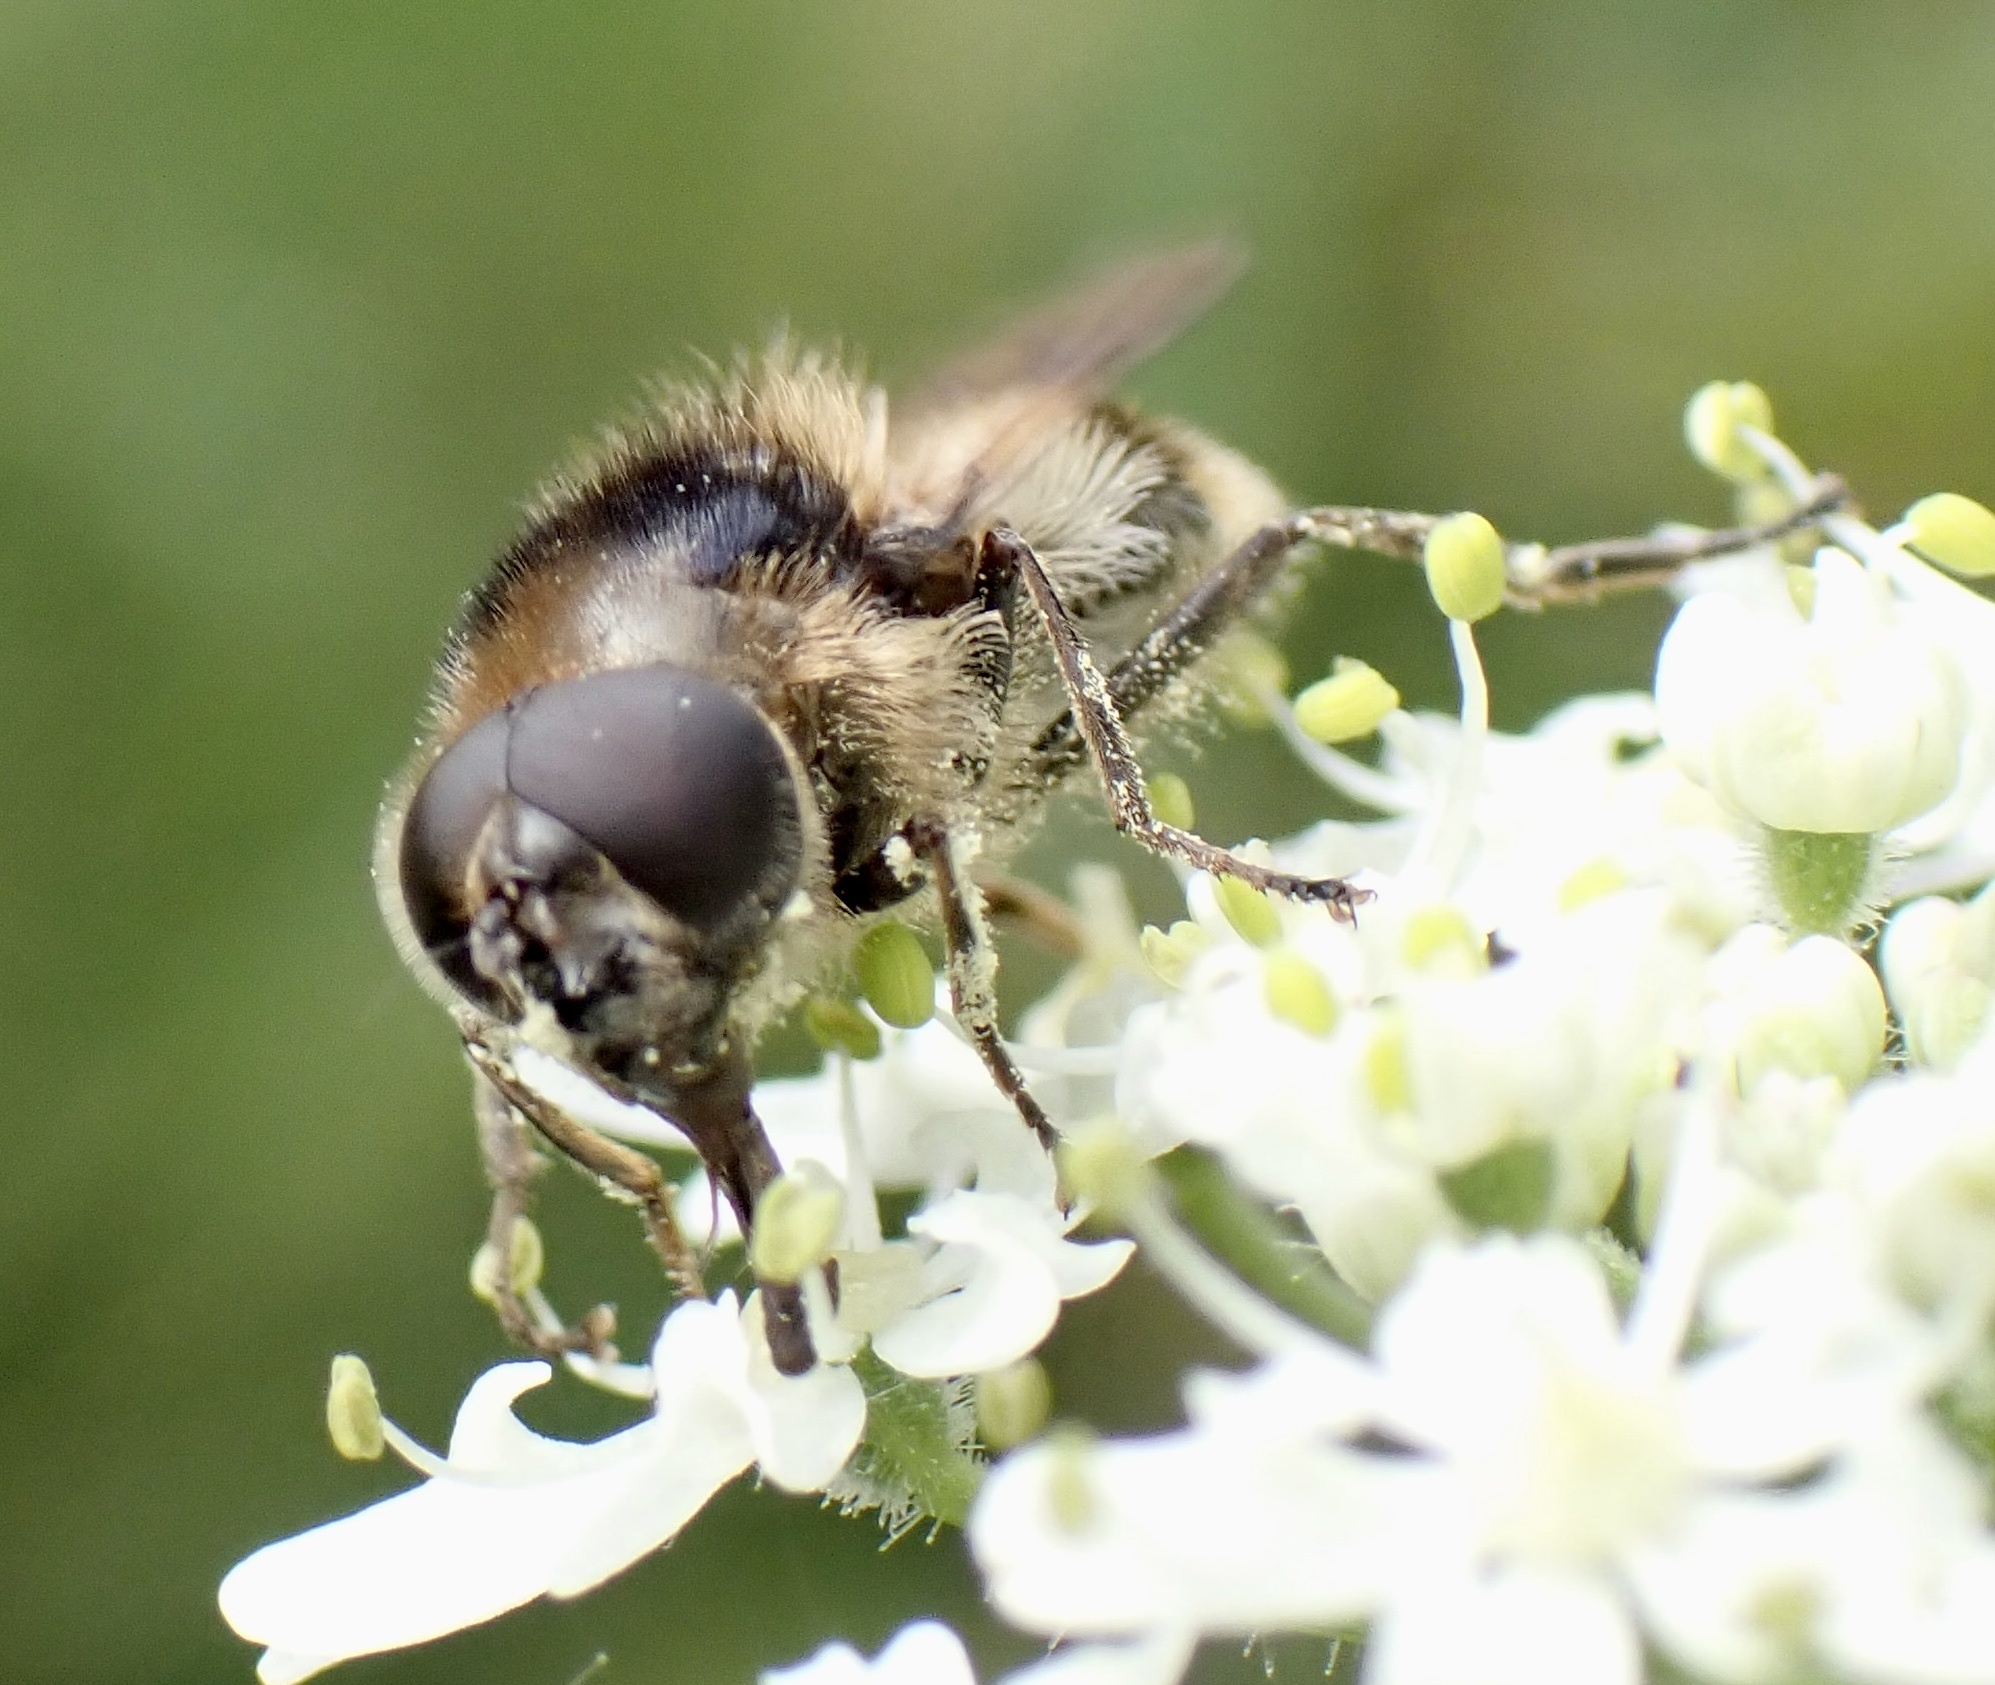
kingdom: Animalia
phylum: Arthropoda
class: Insecta
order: Diptera
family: Syrphidae
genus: Cheilosia
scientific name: Cheilosia illustrata
